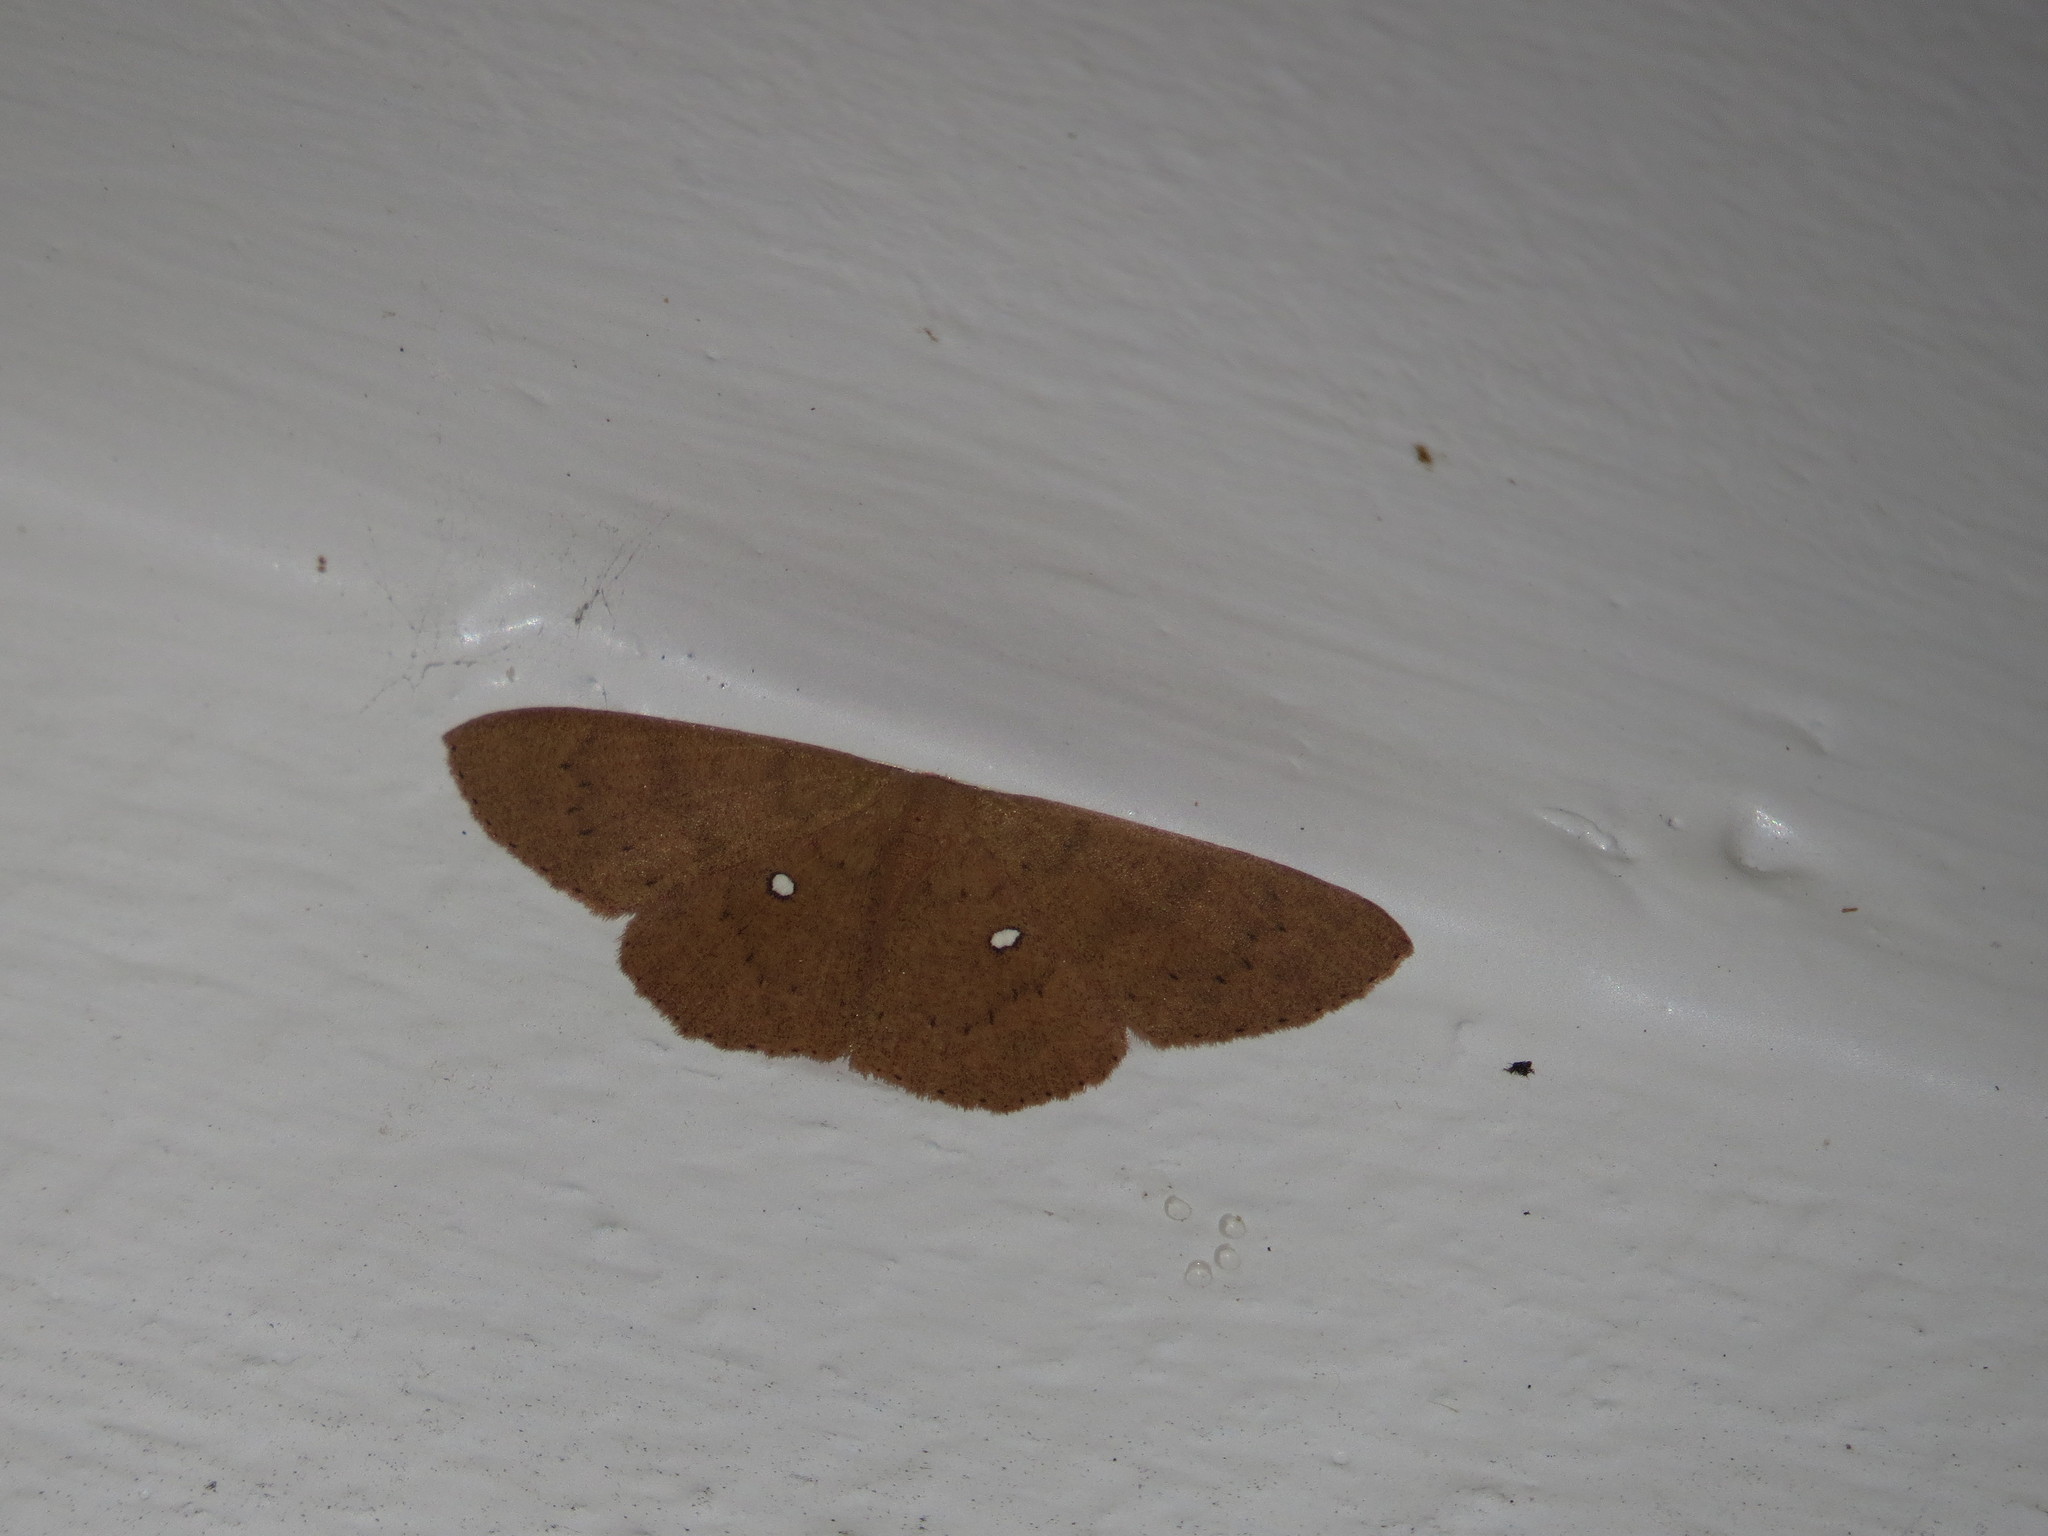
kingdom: Animalia
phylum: Arthropoda
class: Insecta
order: Lepidoptera
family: Geometridae
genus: Perixera
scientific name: Perixera ceramis
